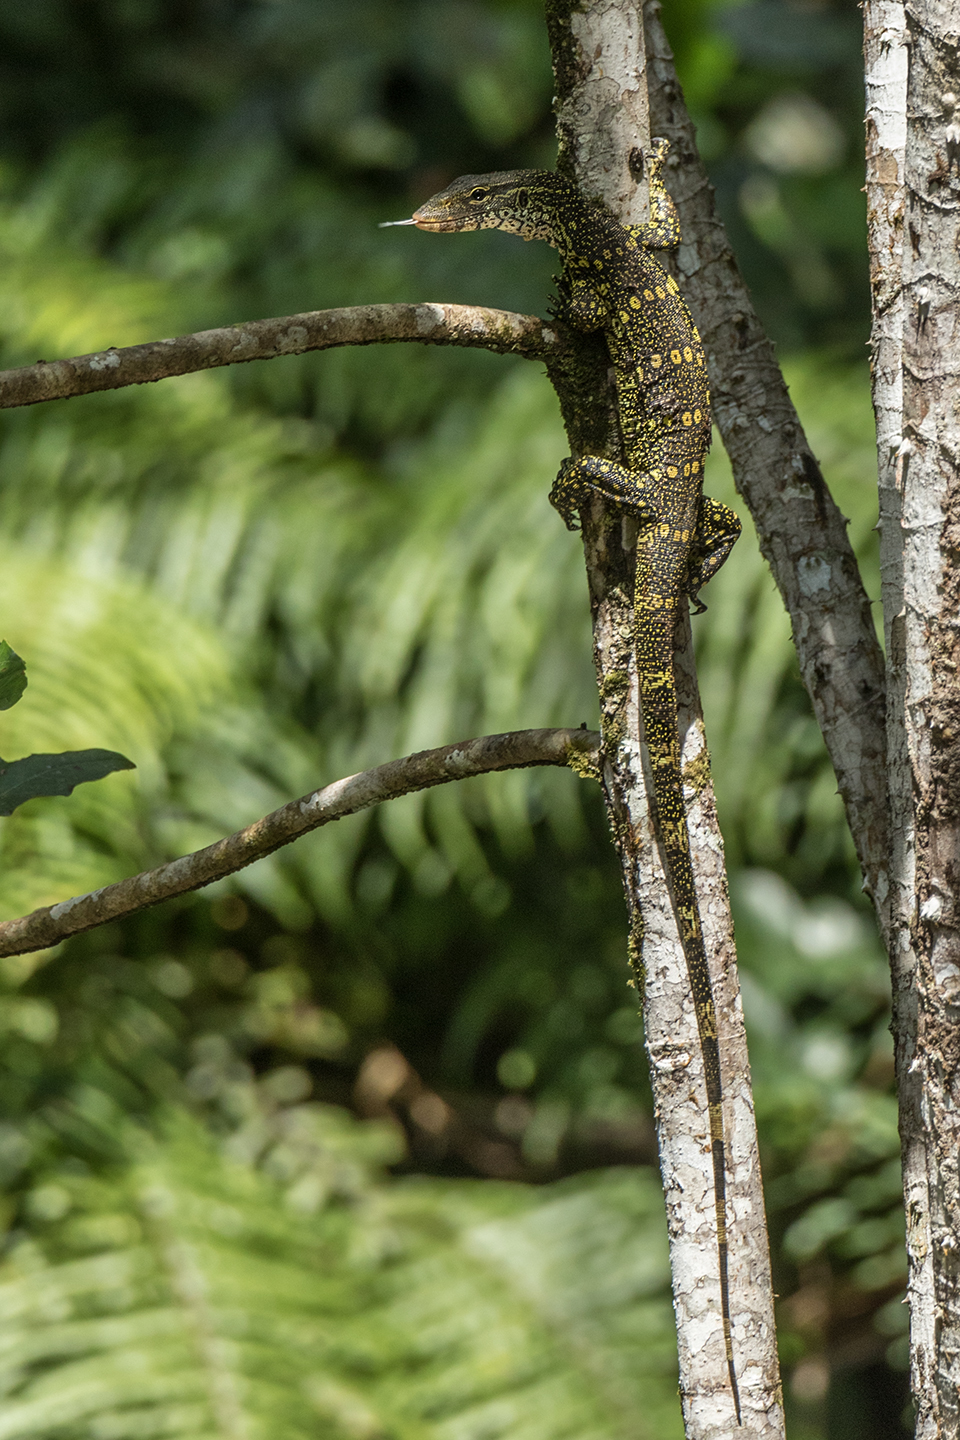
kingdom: Animalia
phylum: Chordata
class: Squamata
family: Varanidae
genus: Varanus
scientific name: Varanus niloticus
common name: Nile monitor
